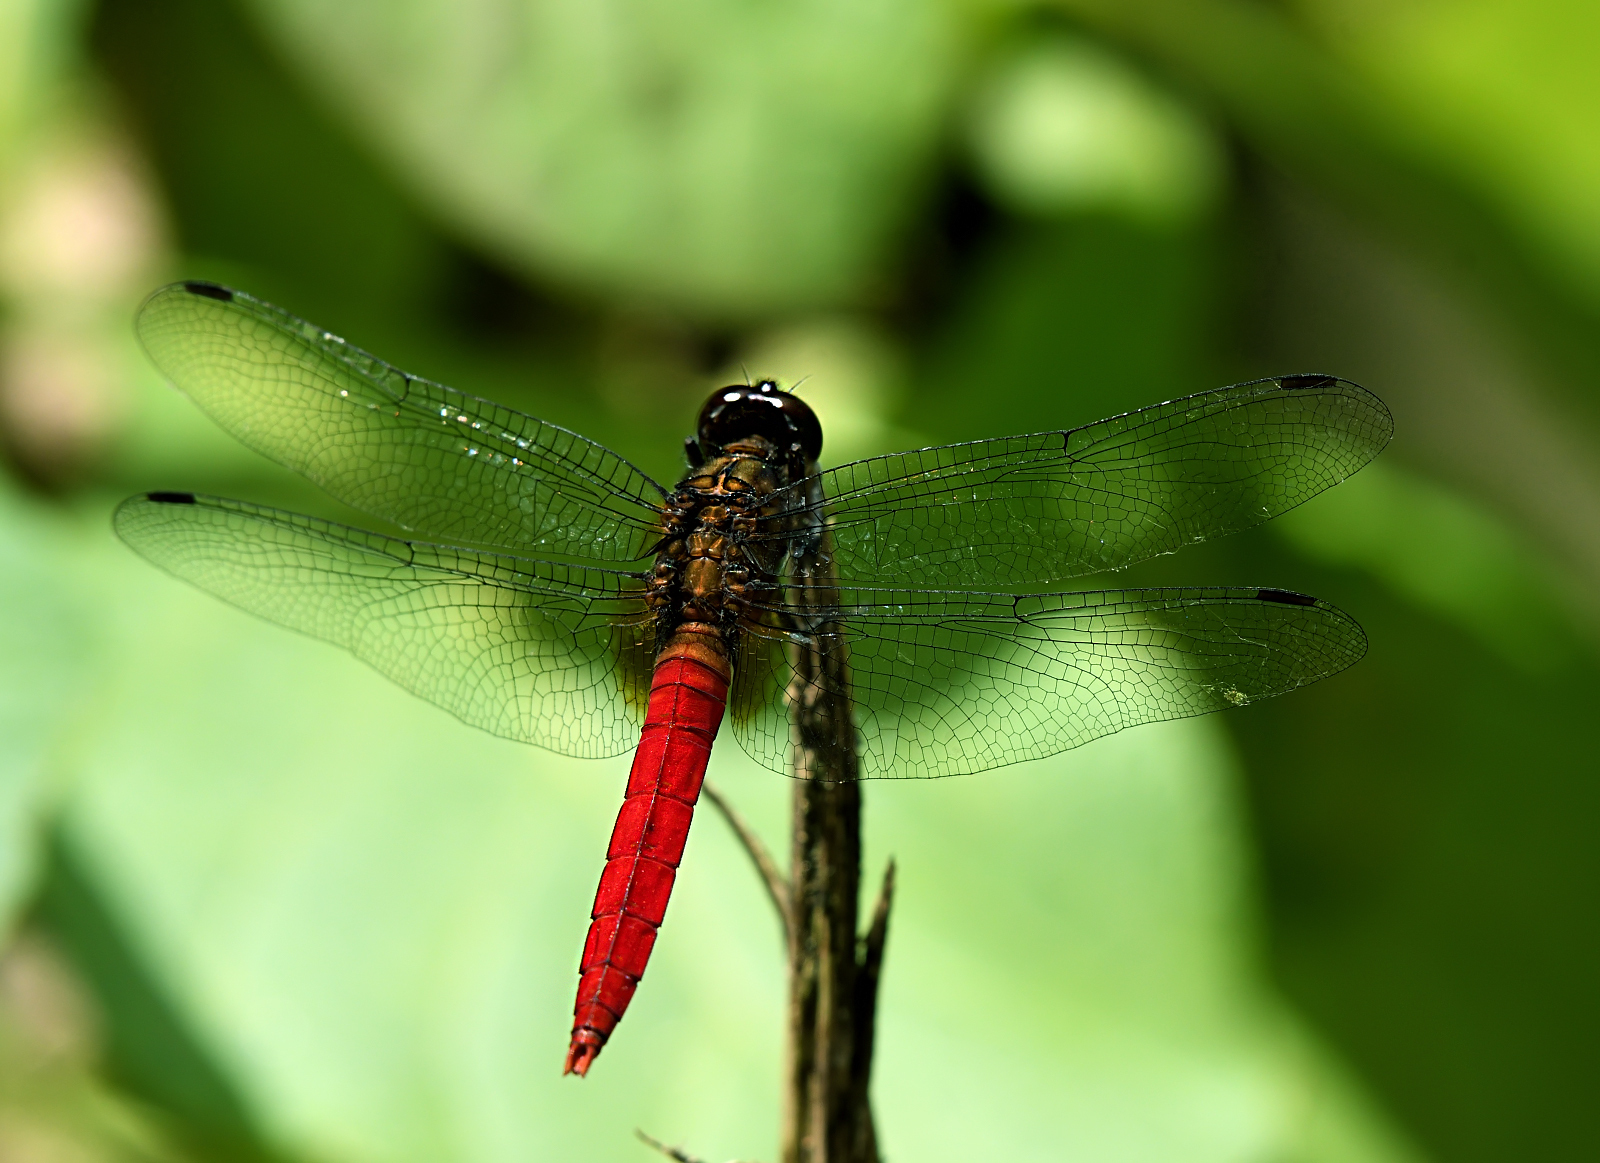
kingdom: Animalia
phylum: Arthropoda
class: Insecta
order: Odonata
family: Libellulidae
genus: Orthetrum
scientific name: Orthetrum chrysis
